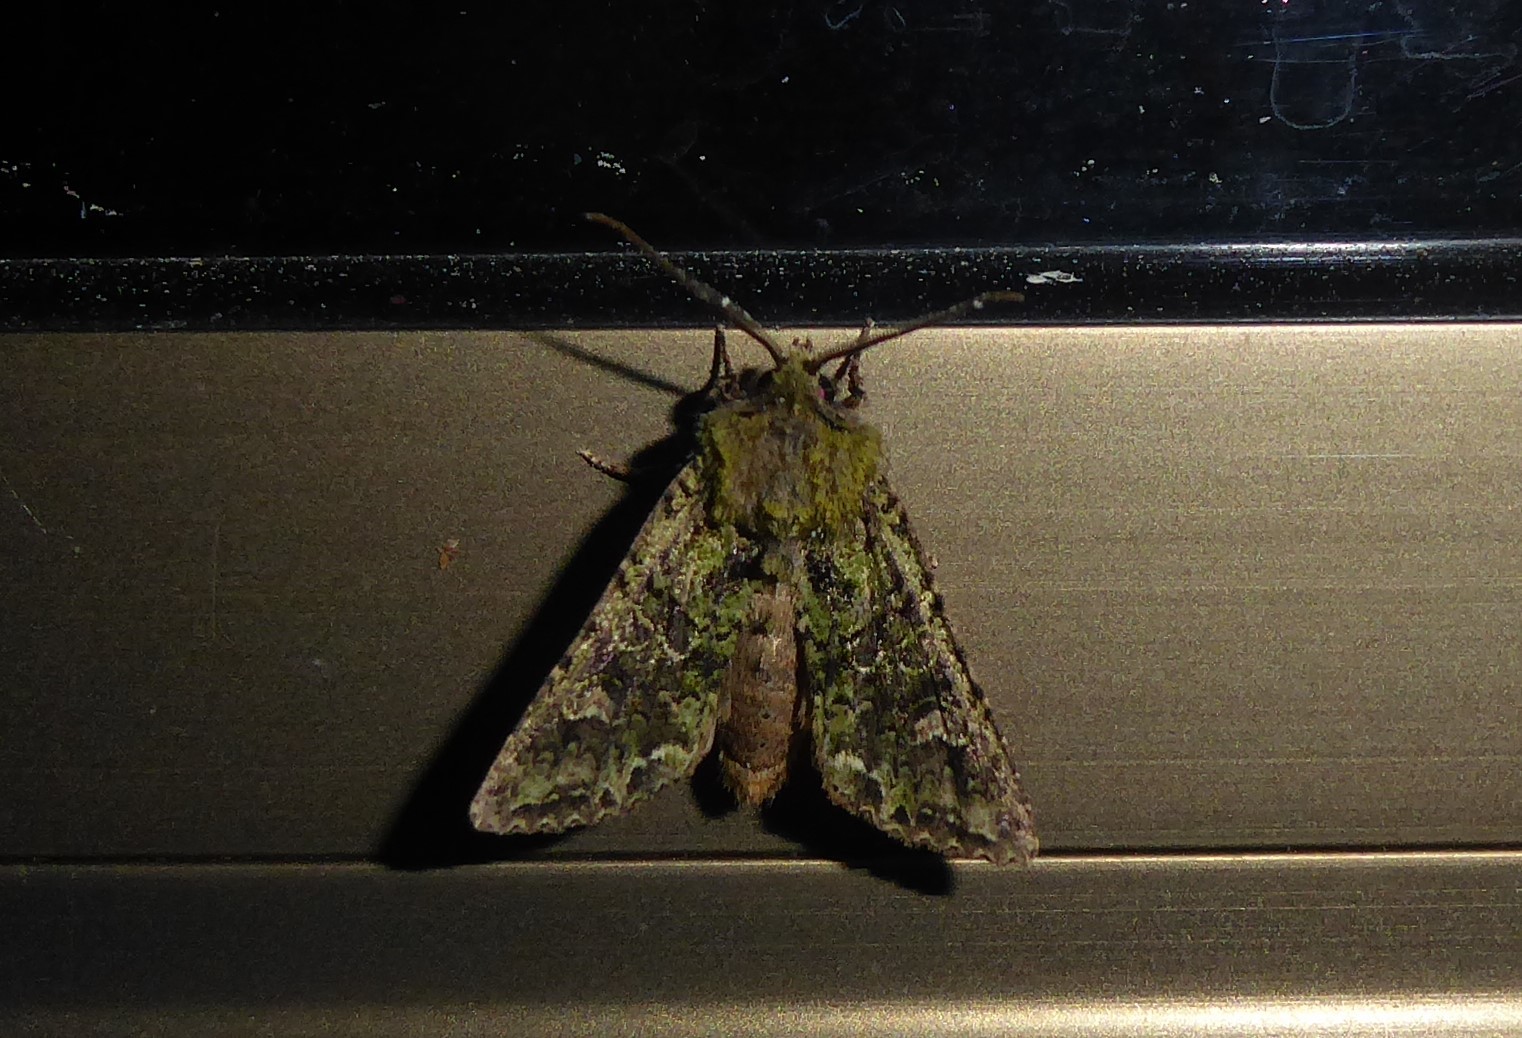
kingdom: Animalia
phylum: Arthropoda
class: Insecta
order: Lepidoptera
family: Noctuidae
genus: Ichneutica
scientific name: Ichneutica
